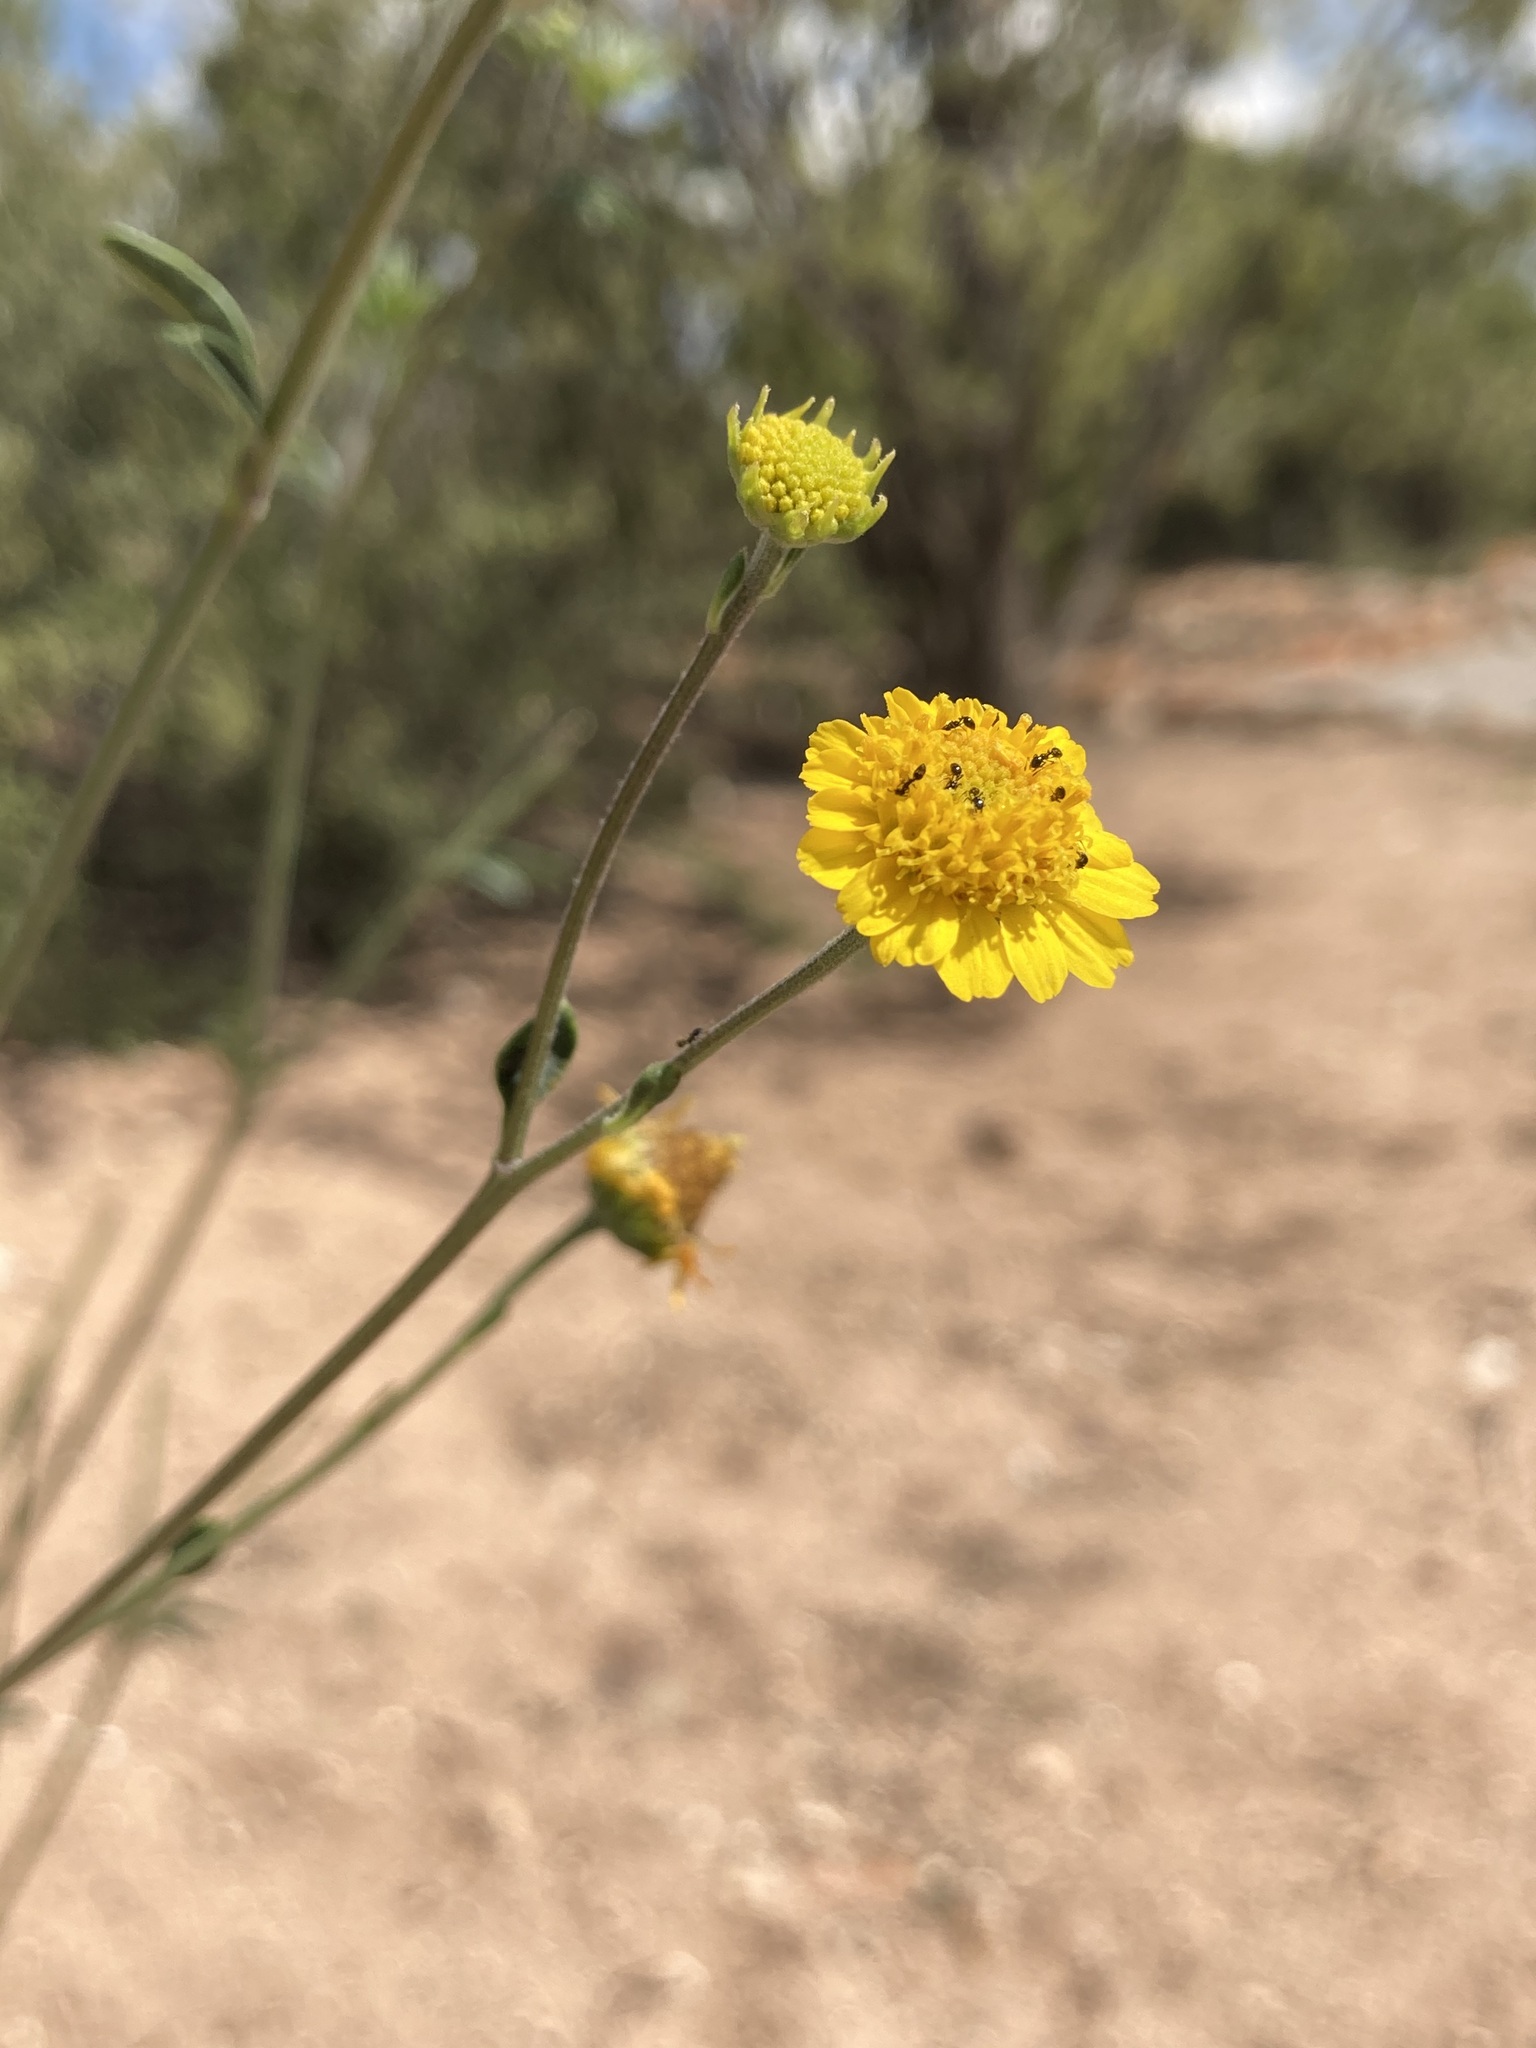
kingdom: Plantae
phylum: Tracheophyta
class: Magnoliopsida
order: Asterales
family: Asteraceae
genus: Hymenothrix
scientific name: Hymenothrix dissecta
